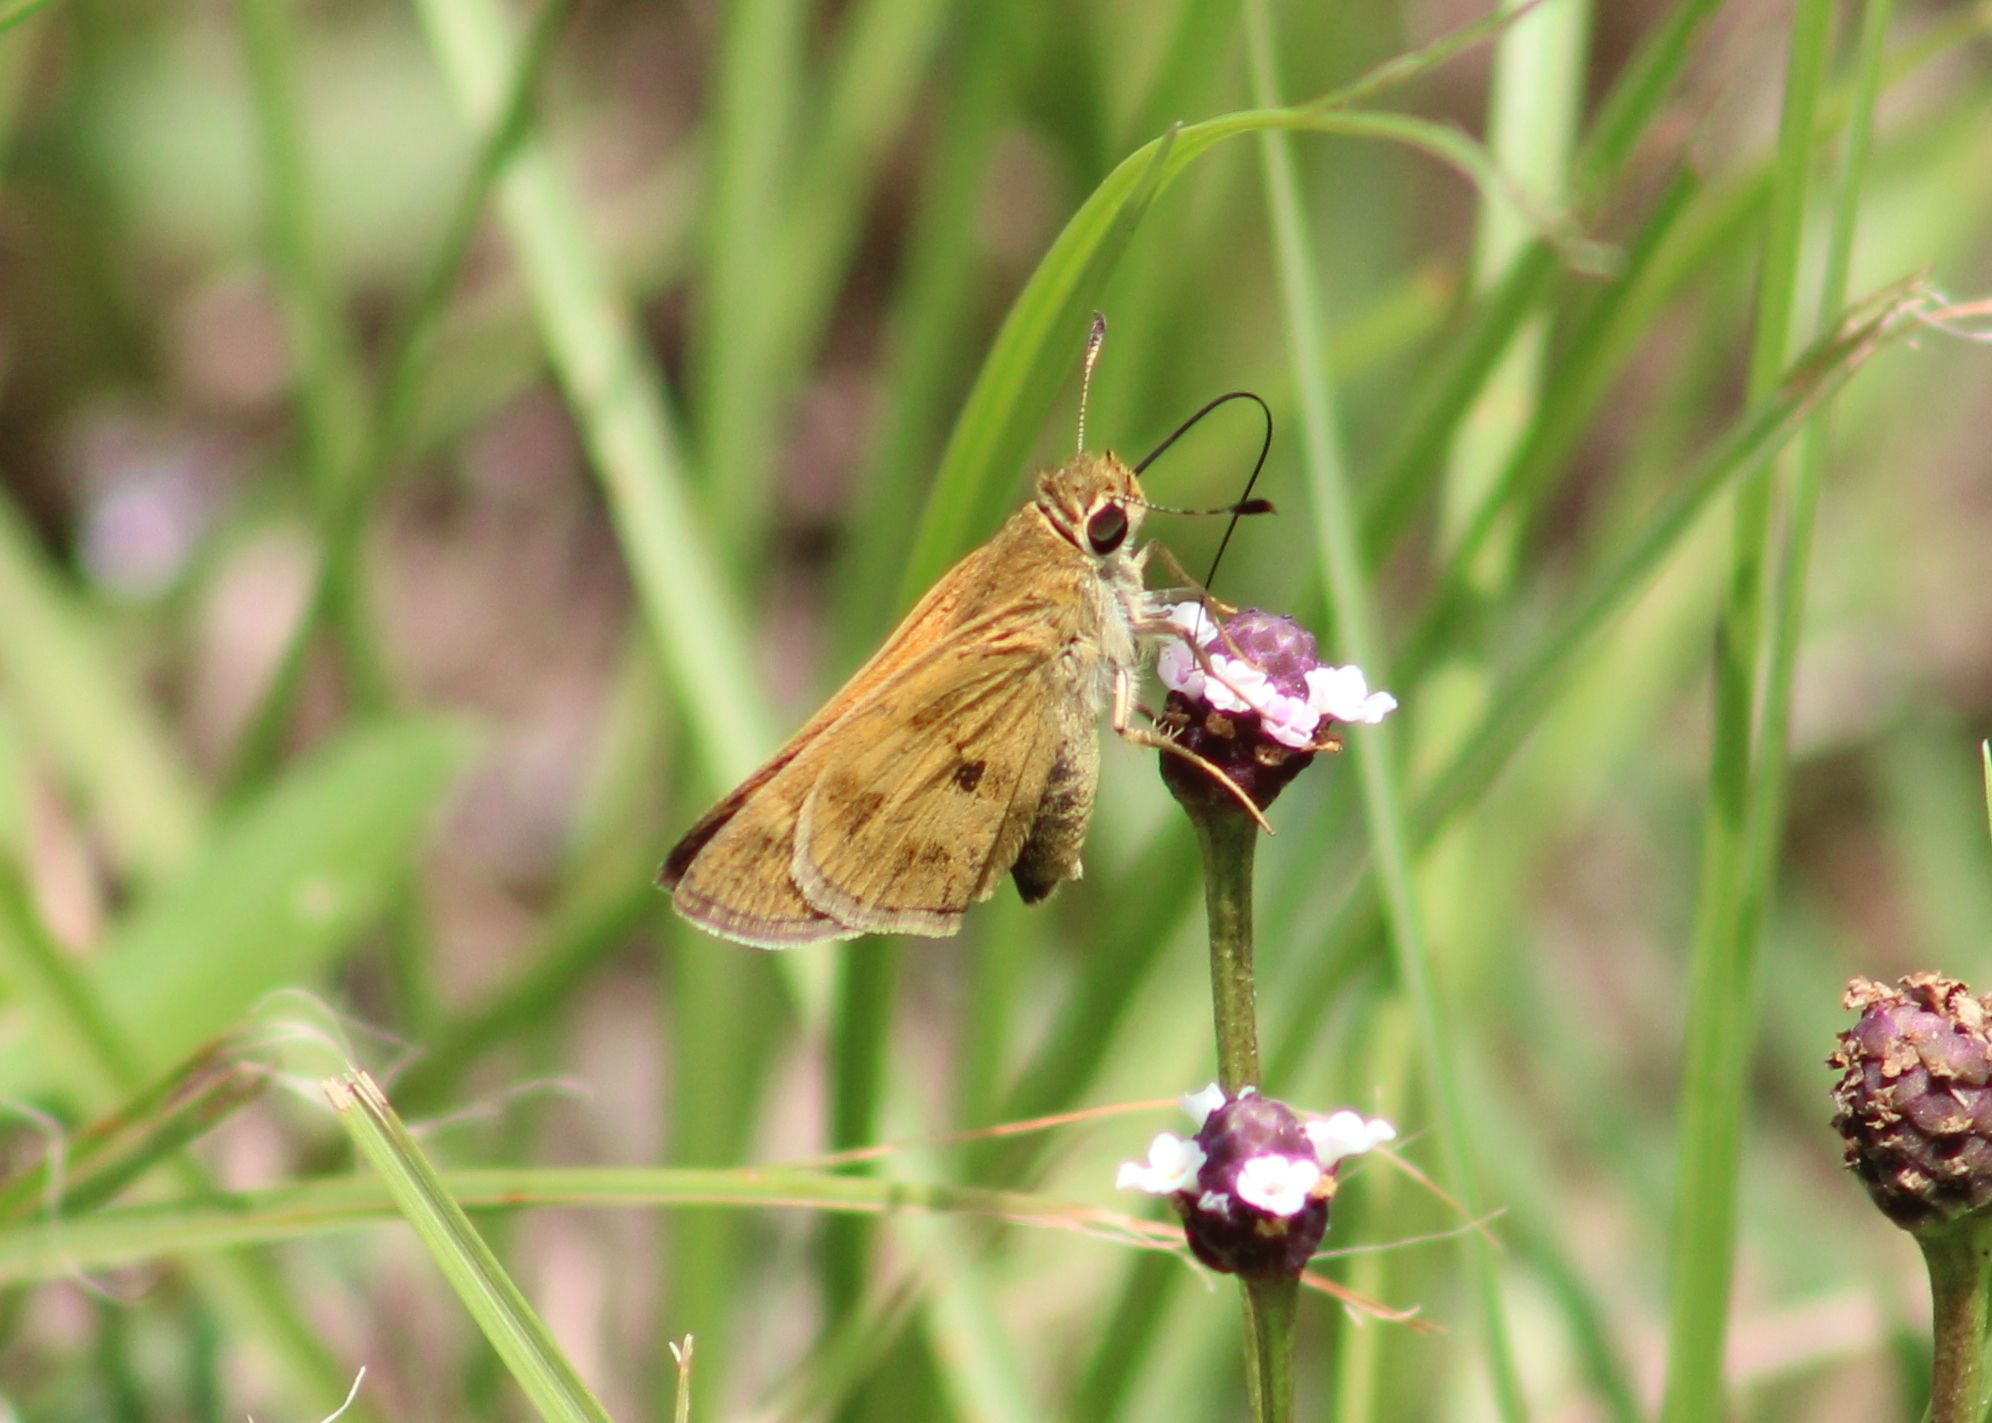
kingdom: Animalia
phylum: Arthropoda
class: Insecta
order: Lepidoptera
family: Hesperiidae
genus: Polites
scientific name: Polites vibex
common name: Whirlabout
